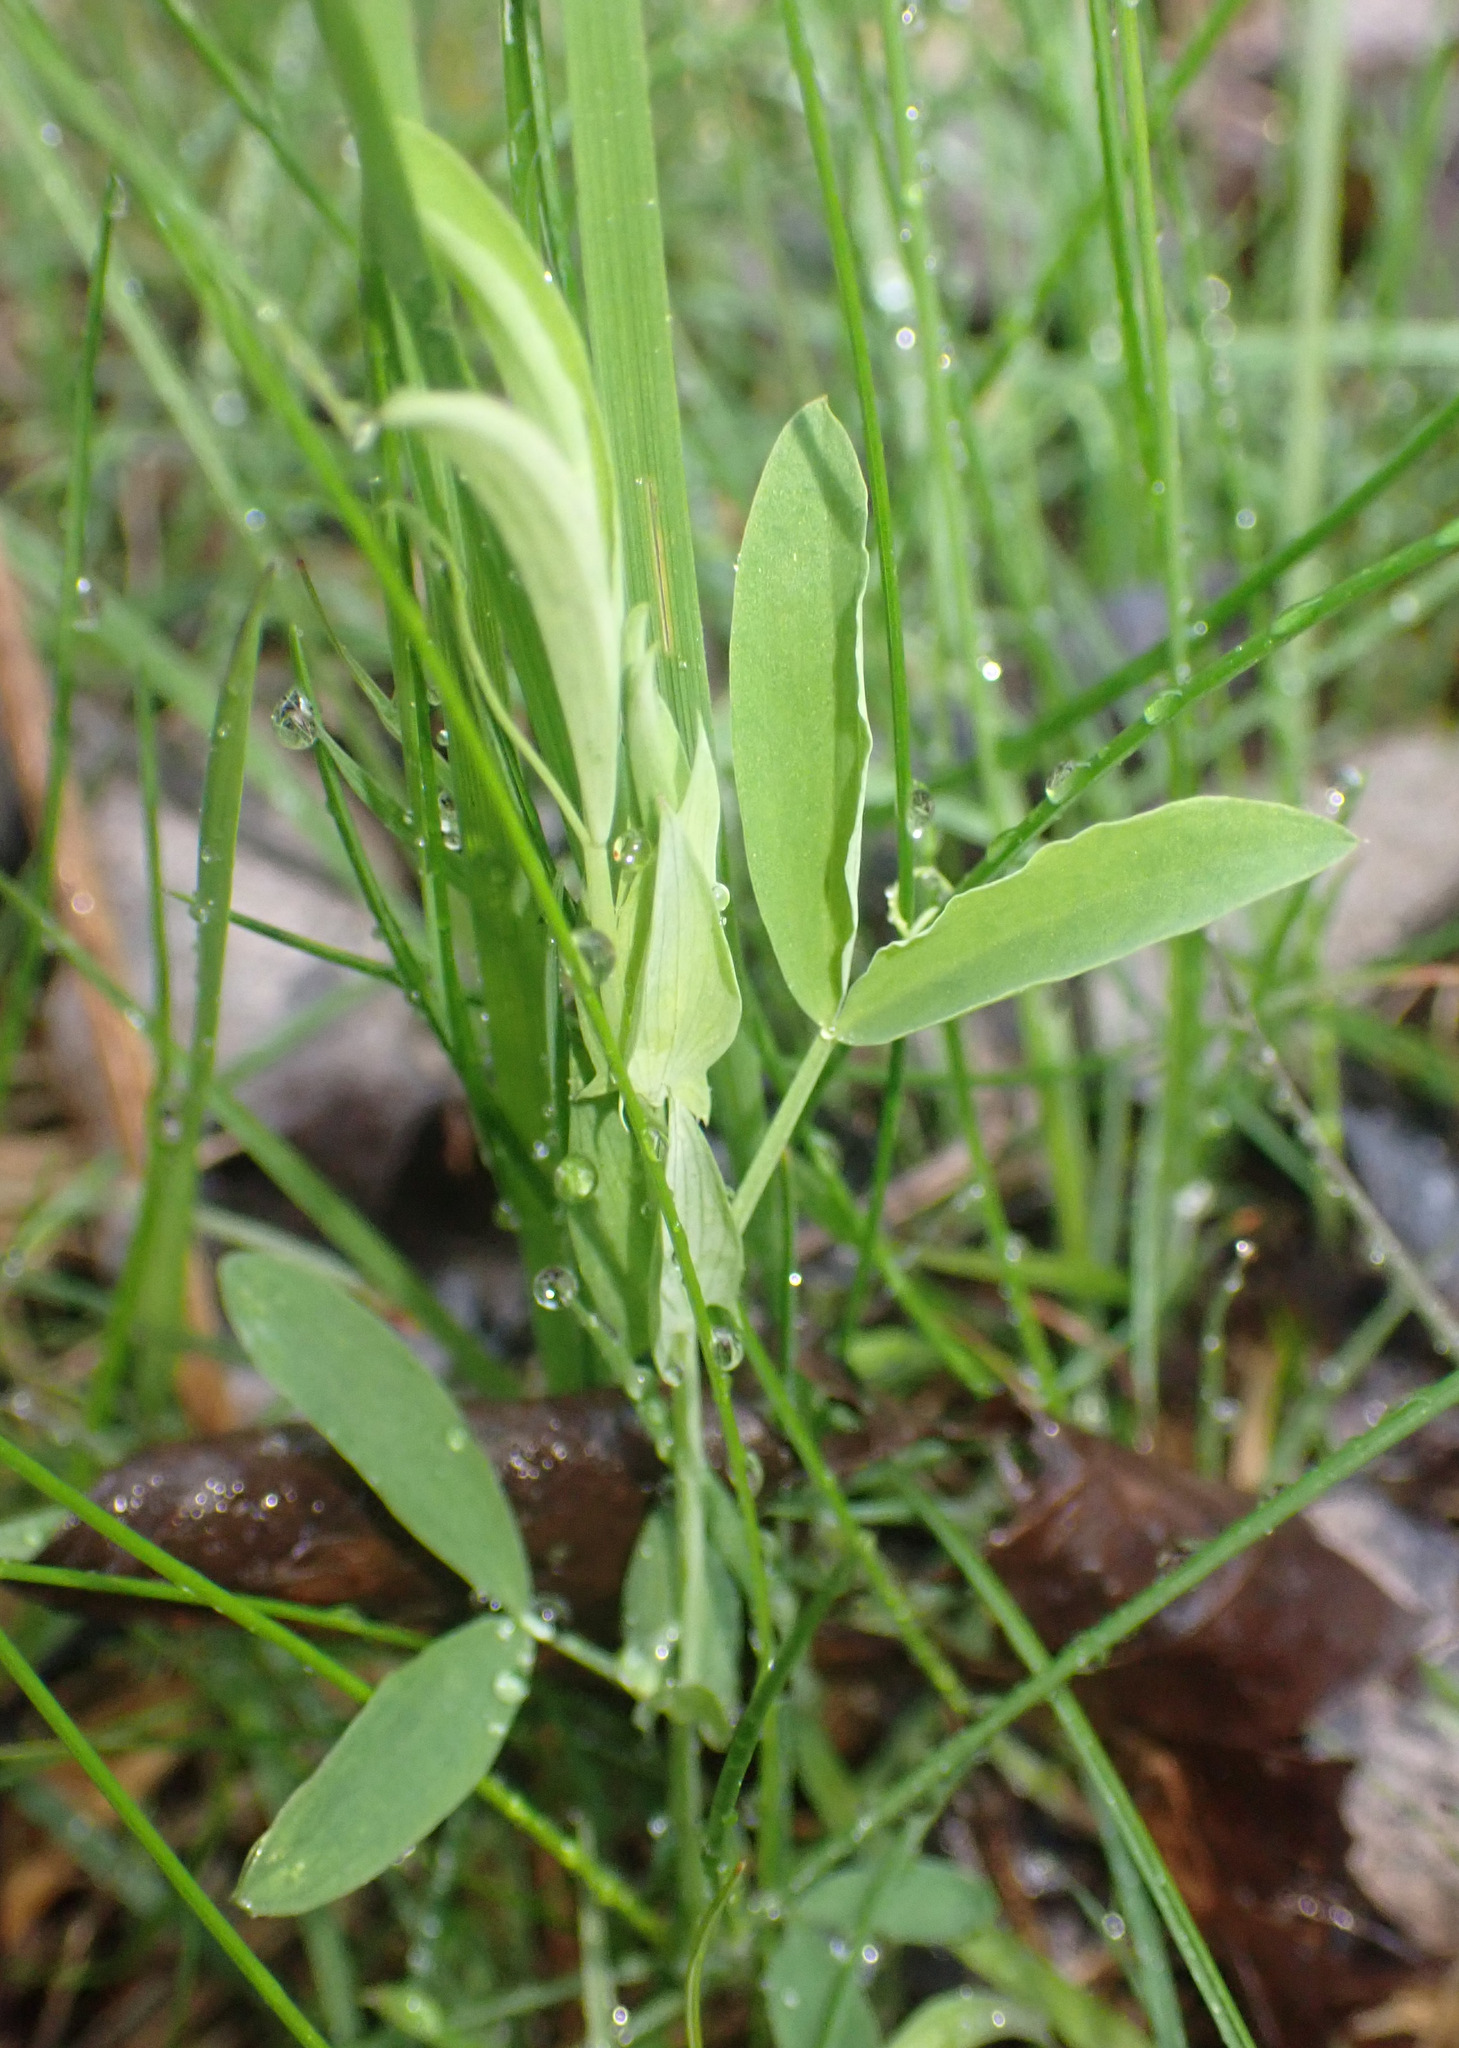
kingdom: Plantae
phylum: Tracheophyta
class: Magnoliopsida
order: Fabales
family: Fabaceae
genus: Lathyrus
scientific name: Lathyrus pratensis
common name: Meadow vetchling
